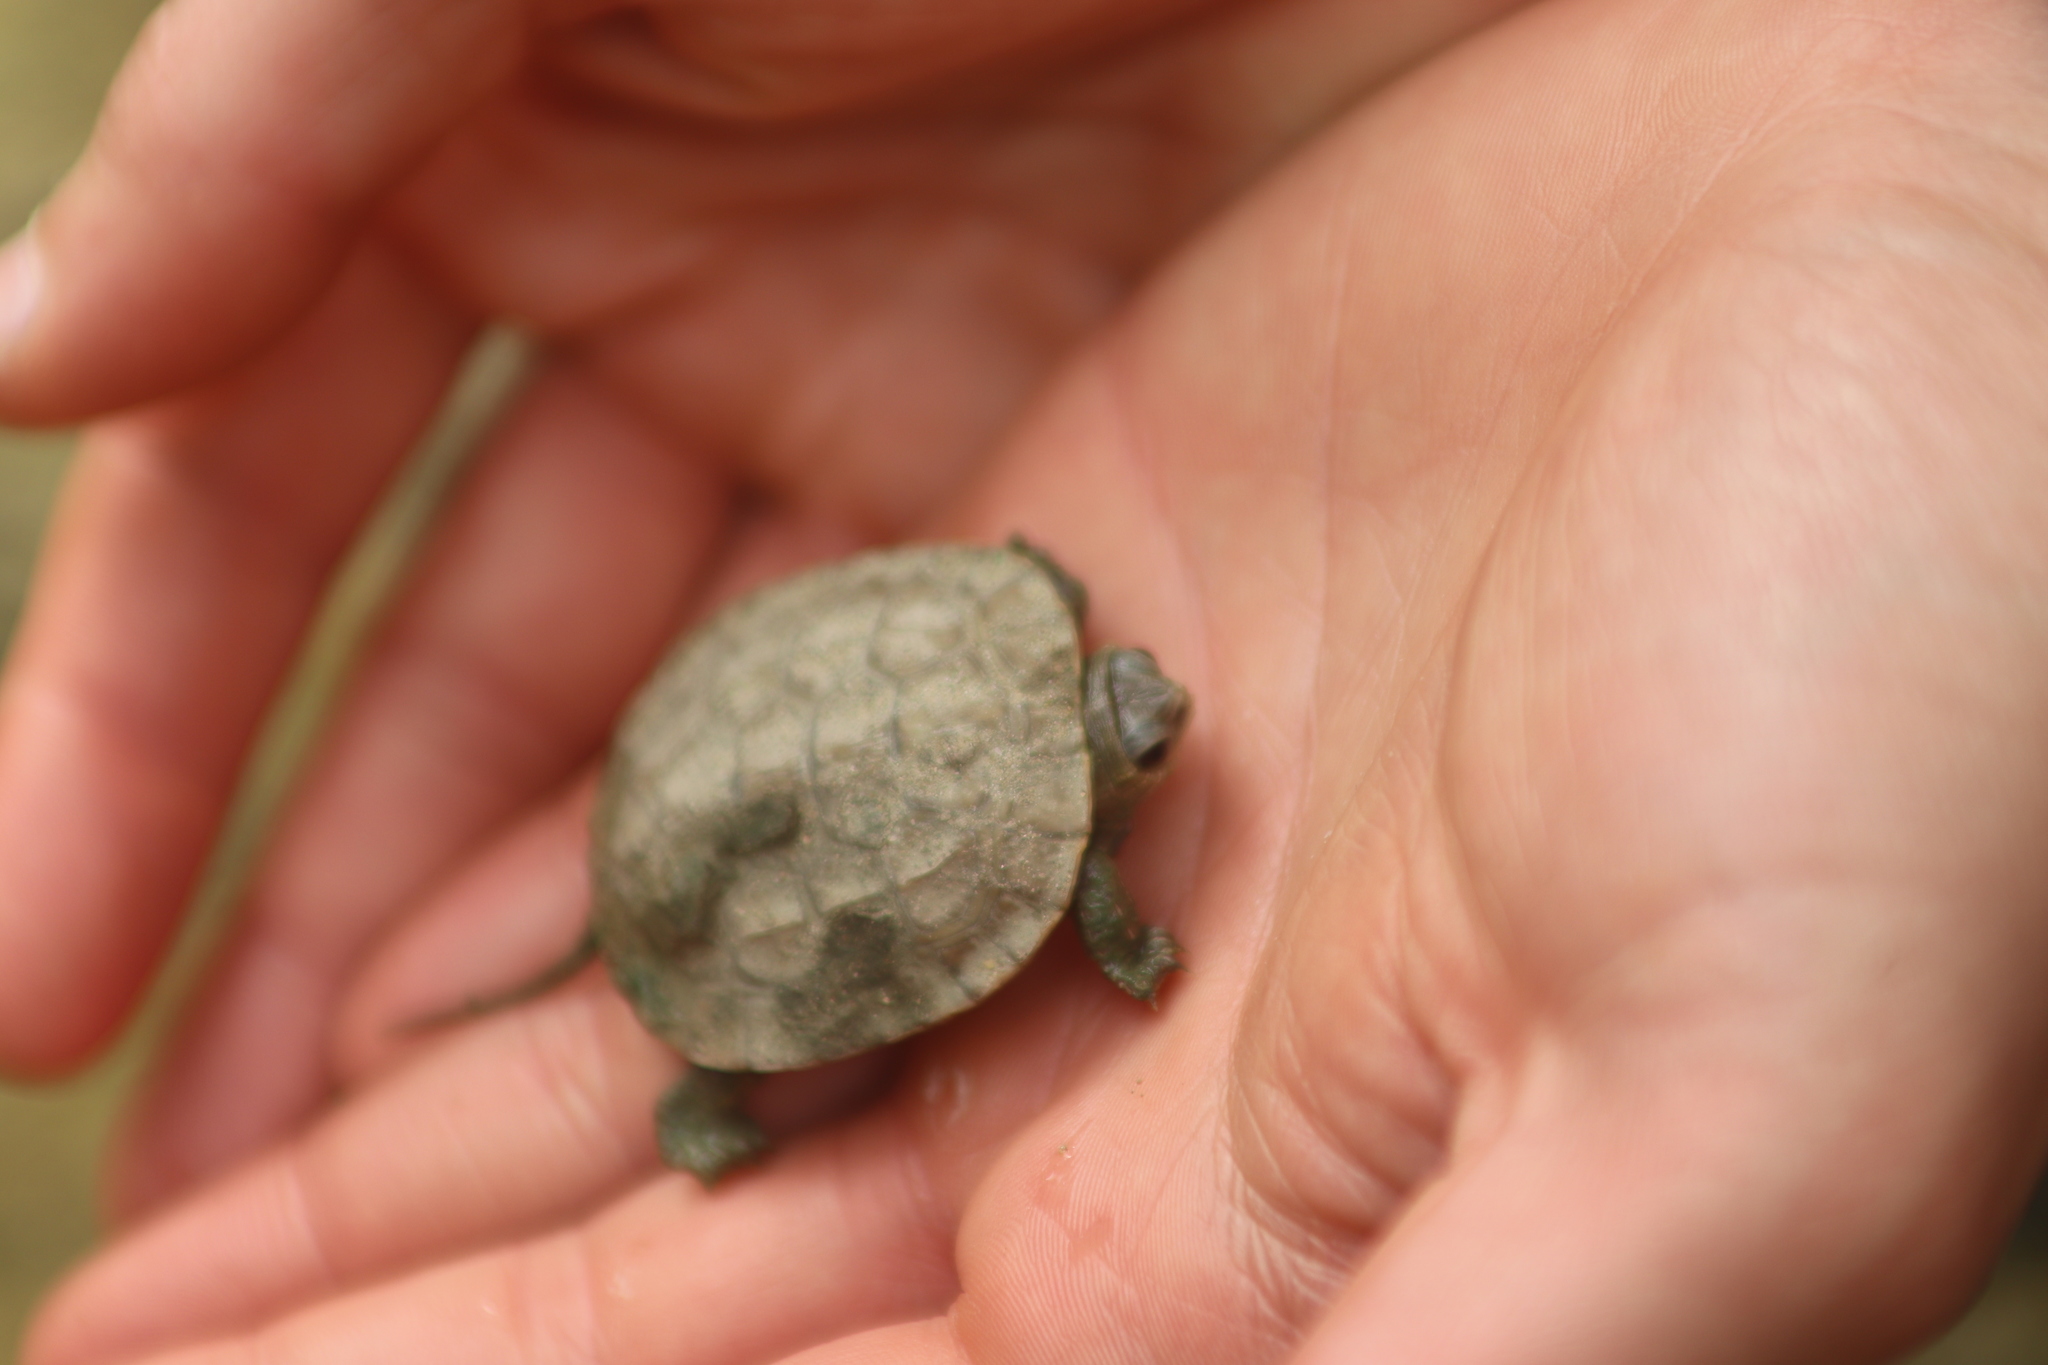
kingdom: Animalia
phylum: Chordata
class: Testudines
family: Geoemydidae
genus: Mauremys
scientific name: Mauremys rivulata
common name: Western caspian turtle
